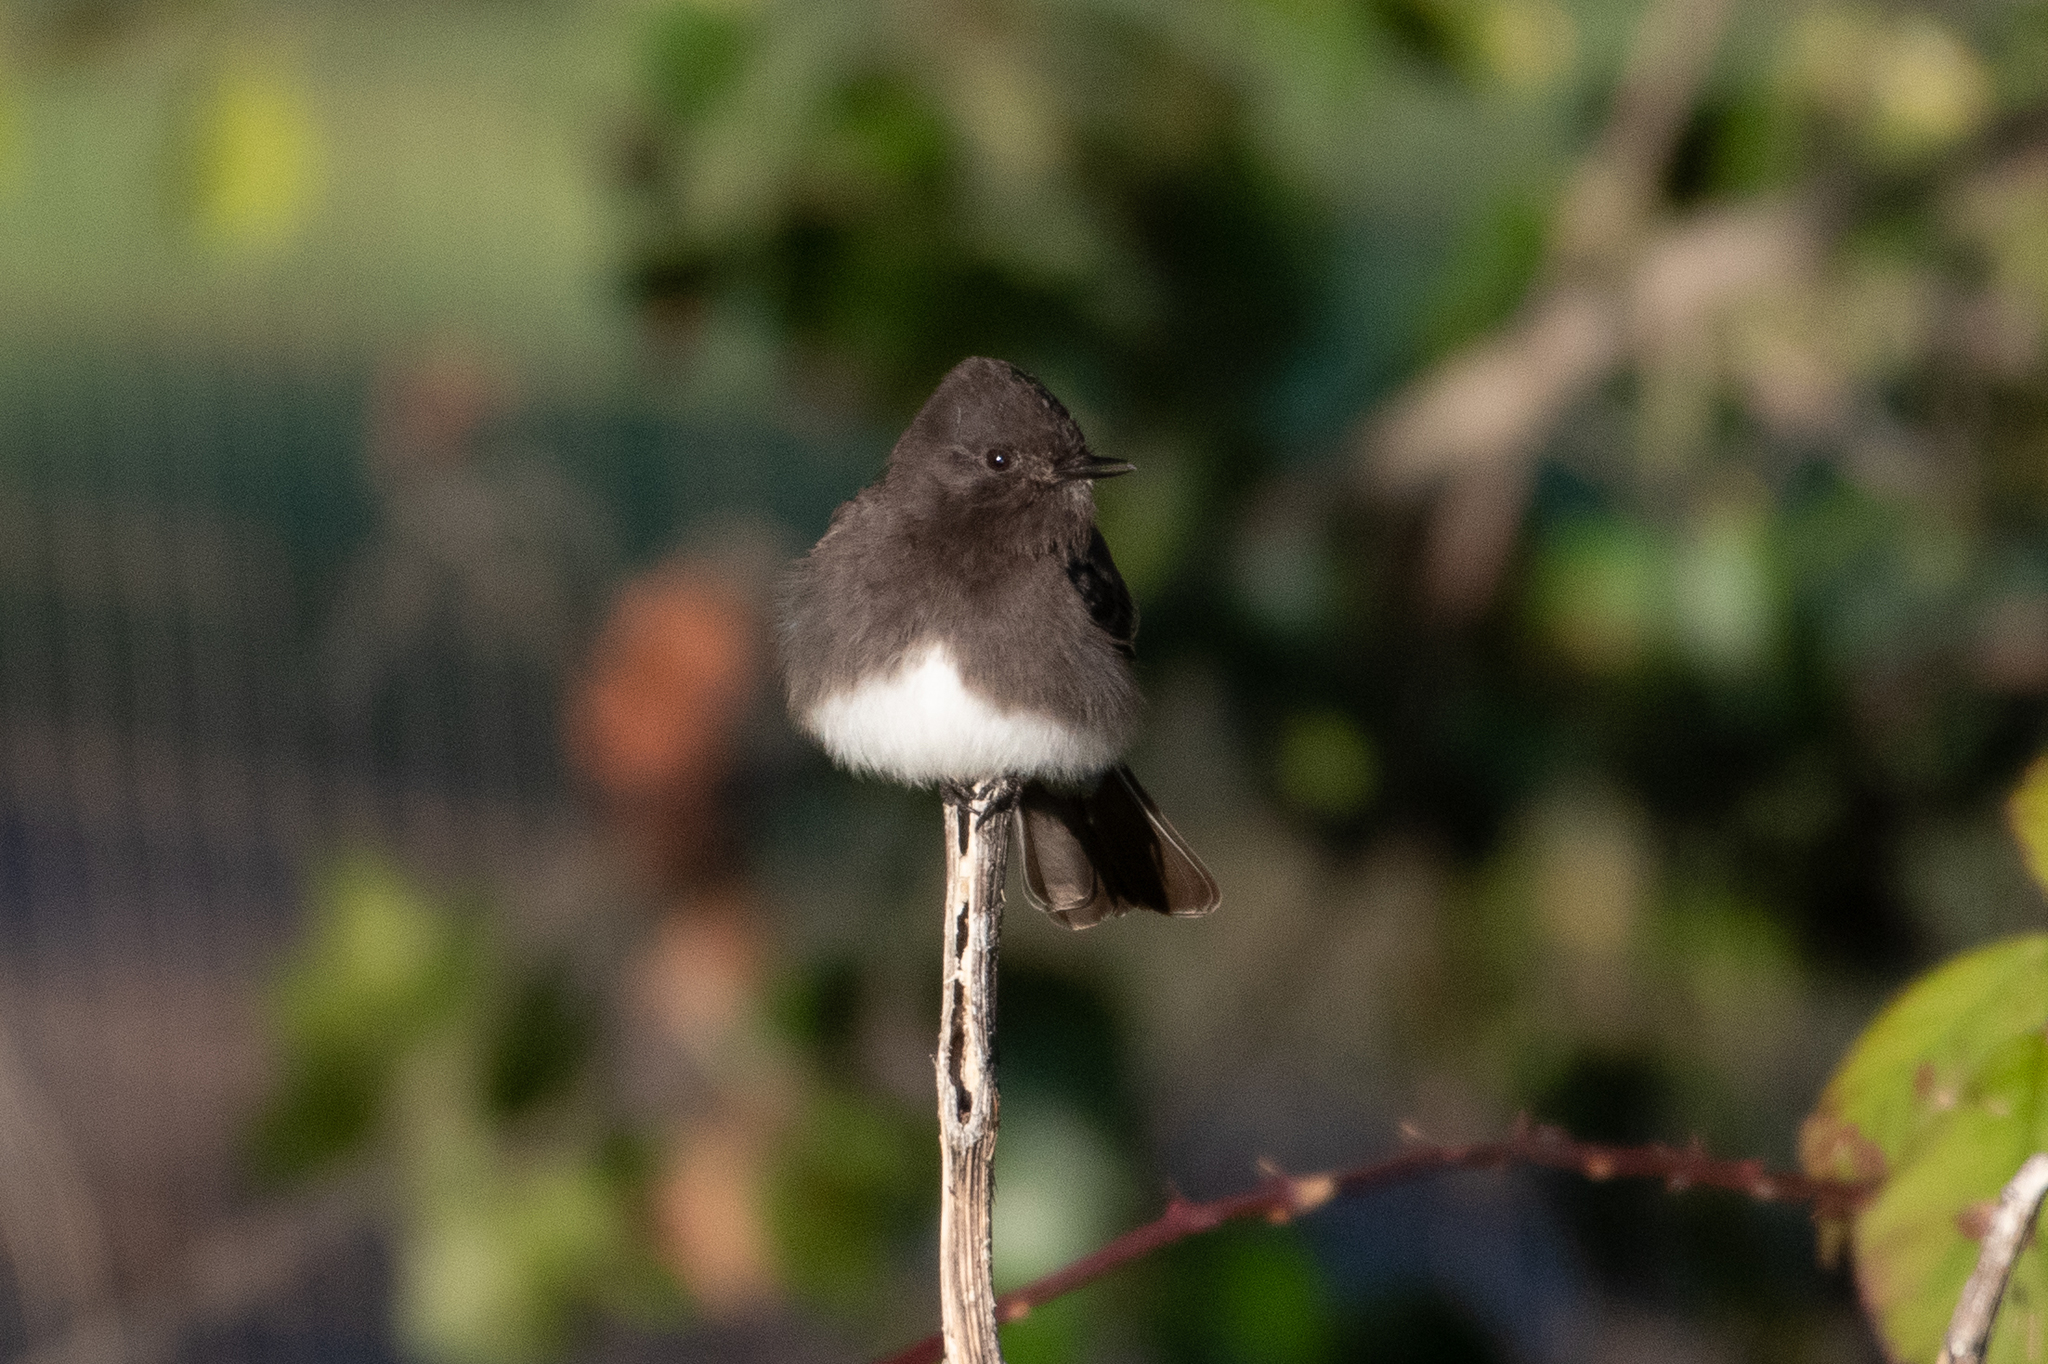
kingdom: Animalia
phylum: Chordata
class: Aves
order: Passeriformes
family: Tyrannidae
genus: Sayornis
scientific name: Sayornis nigricans
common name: Black phoebe
